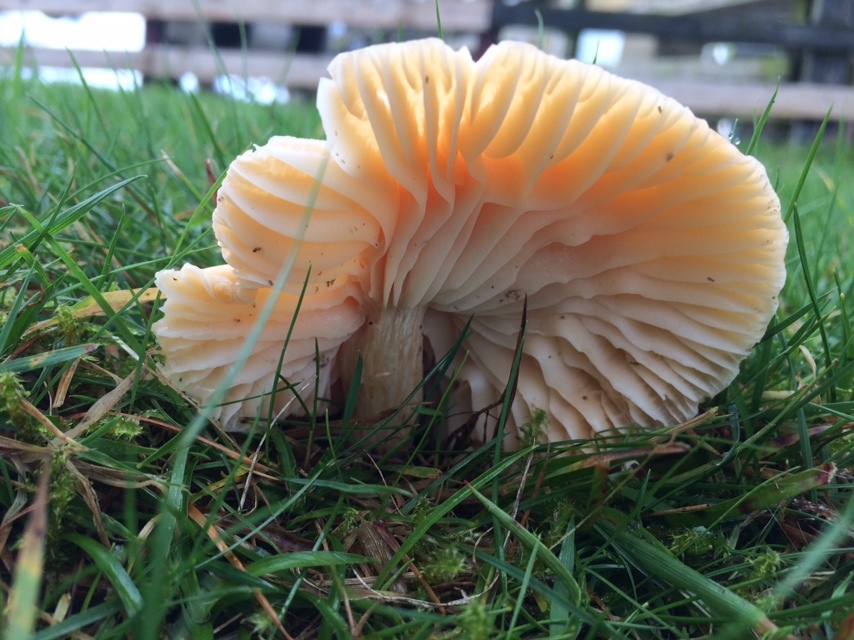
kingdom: Fungi
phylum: Basidiomycota
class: Agaricomycetes
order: Agaricales
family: Hygrophoraceae
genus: Cuphophyllus
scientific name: Cuphophyllus pratensis
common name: Meadow waxcap
